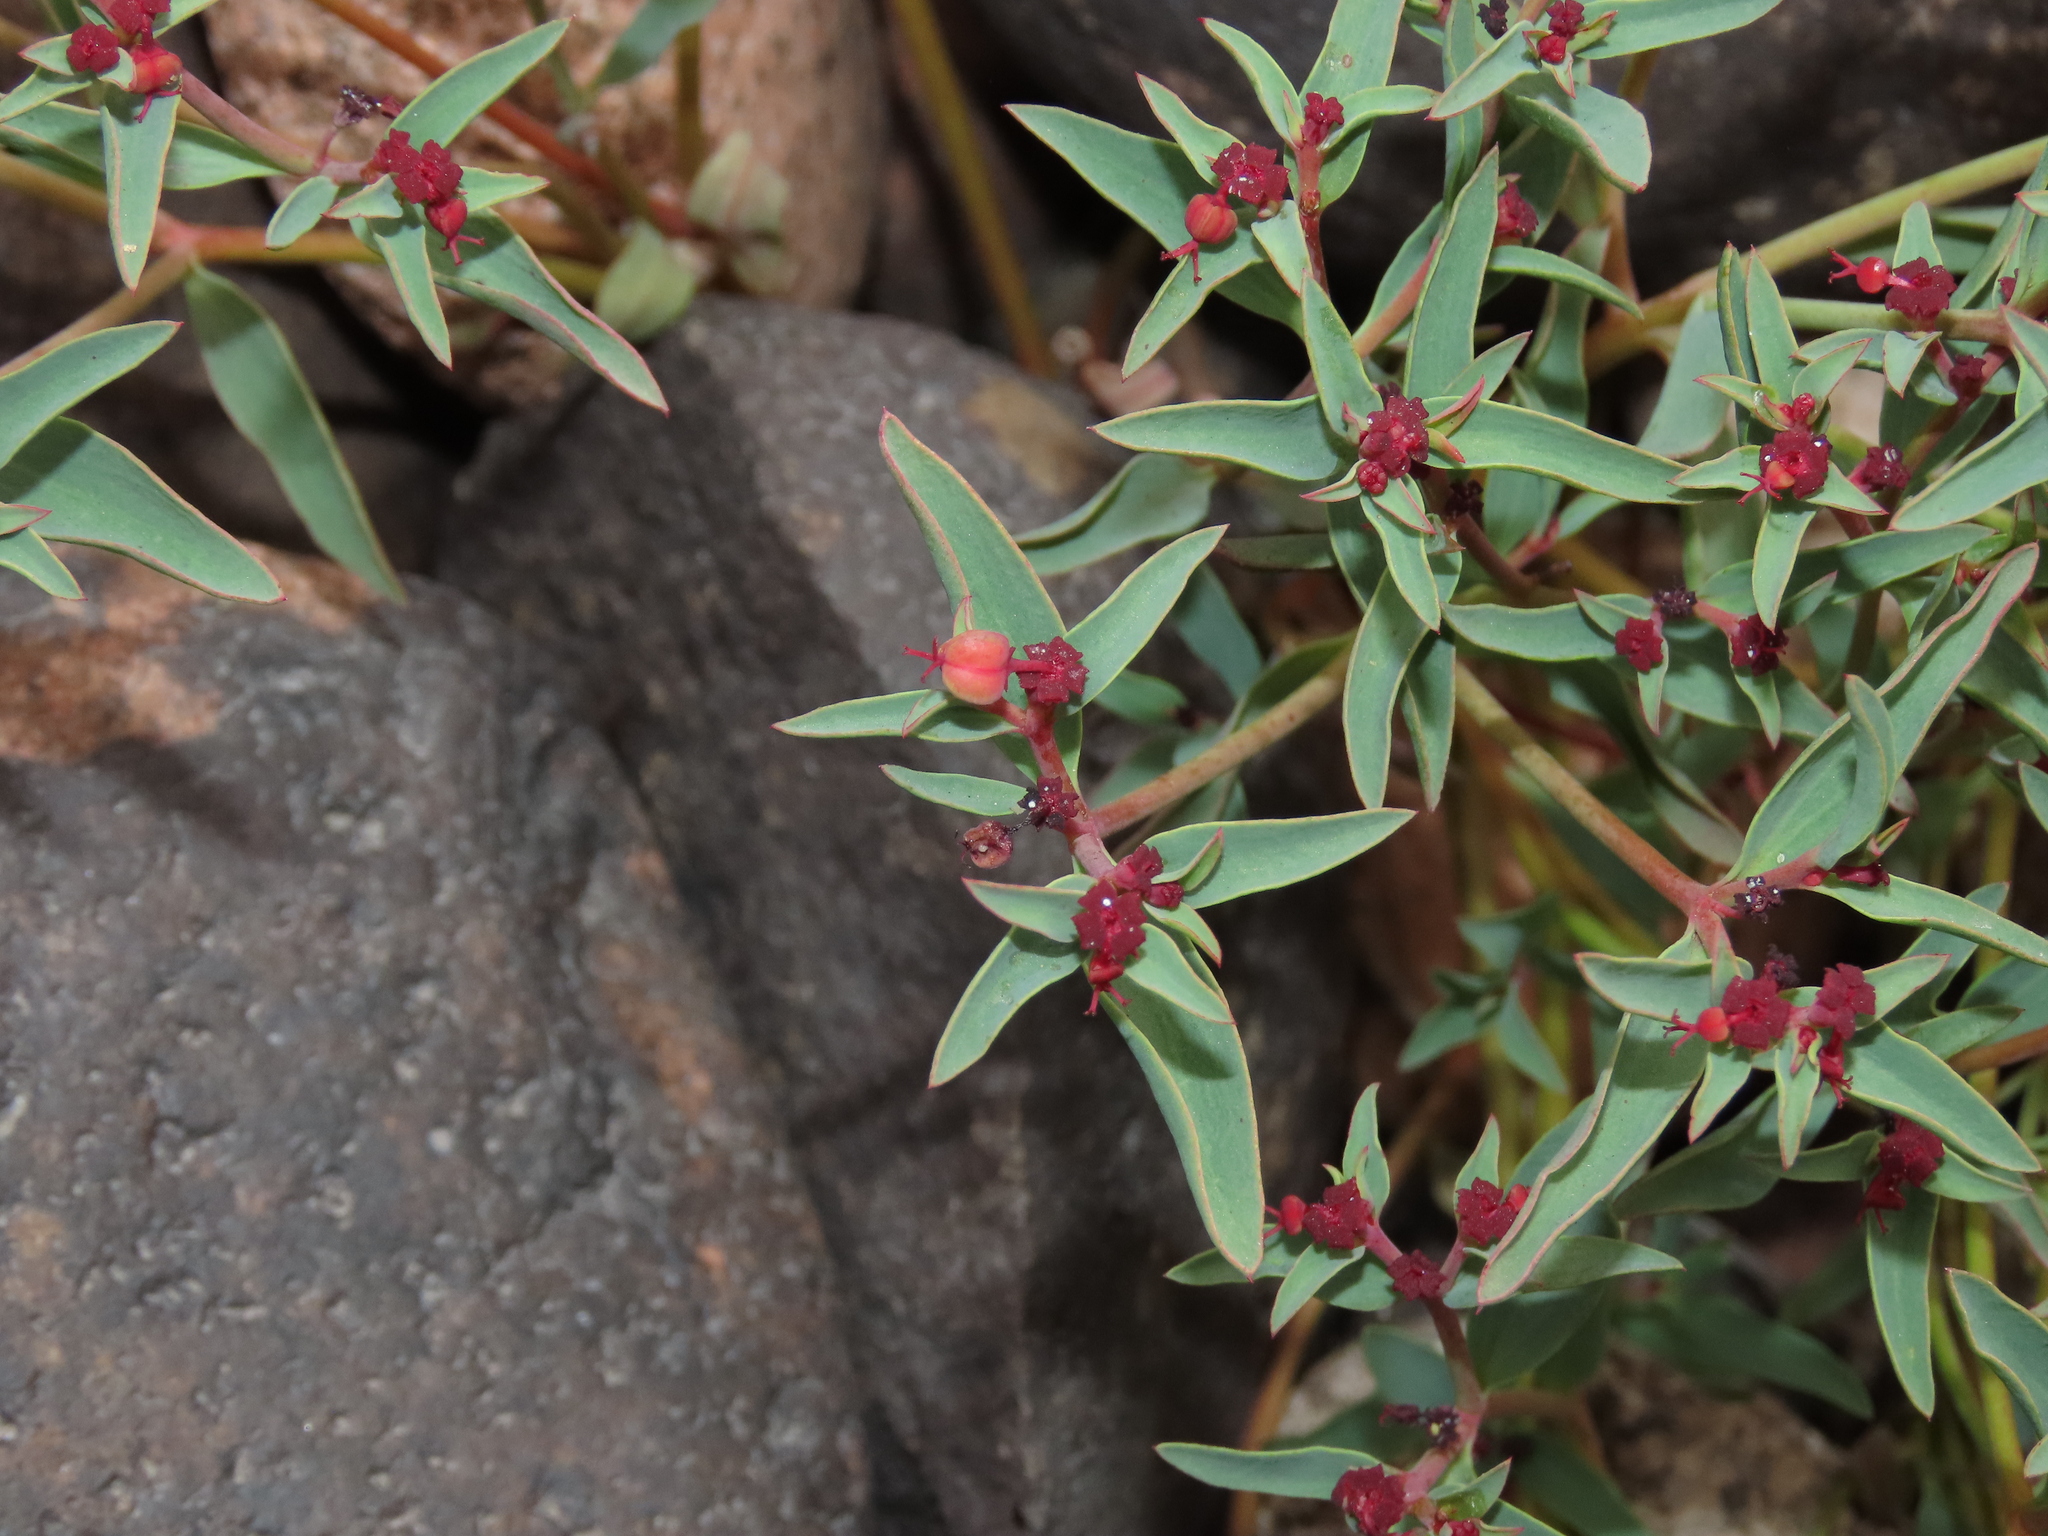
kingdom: Plantae
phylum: Tracheophyta
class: Magnoliopsida
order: Malpighiales
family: Euphorbiaceae
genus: Euphorbia
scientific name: Euphorbia thinophila
